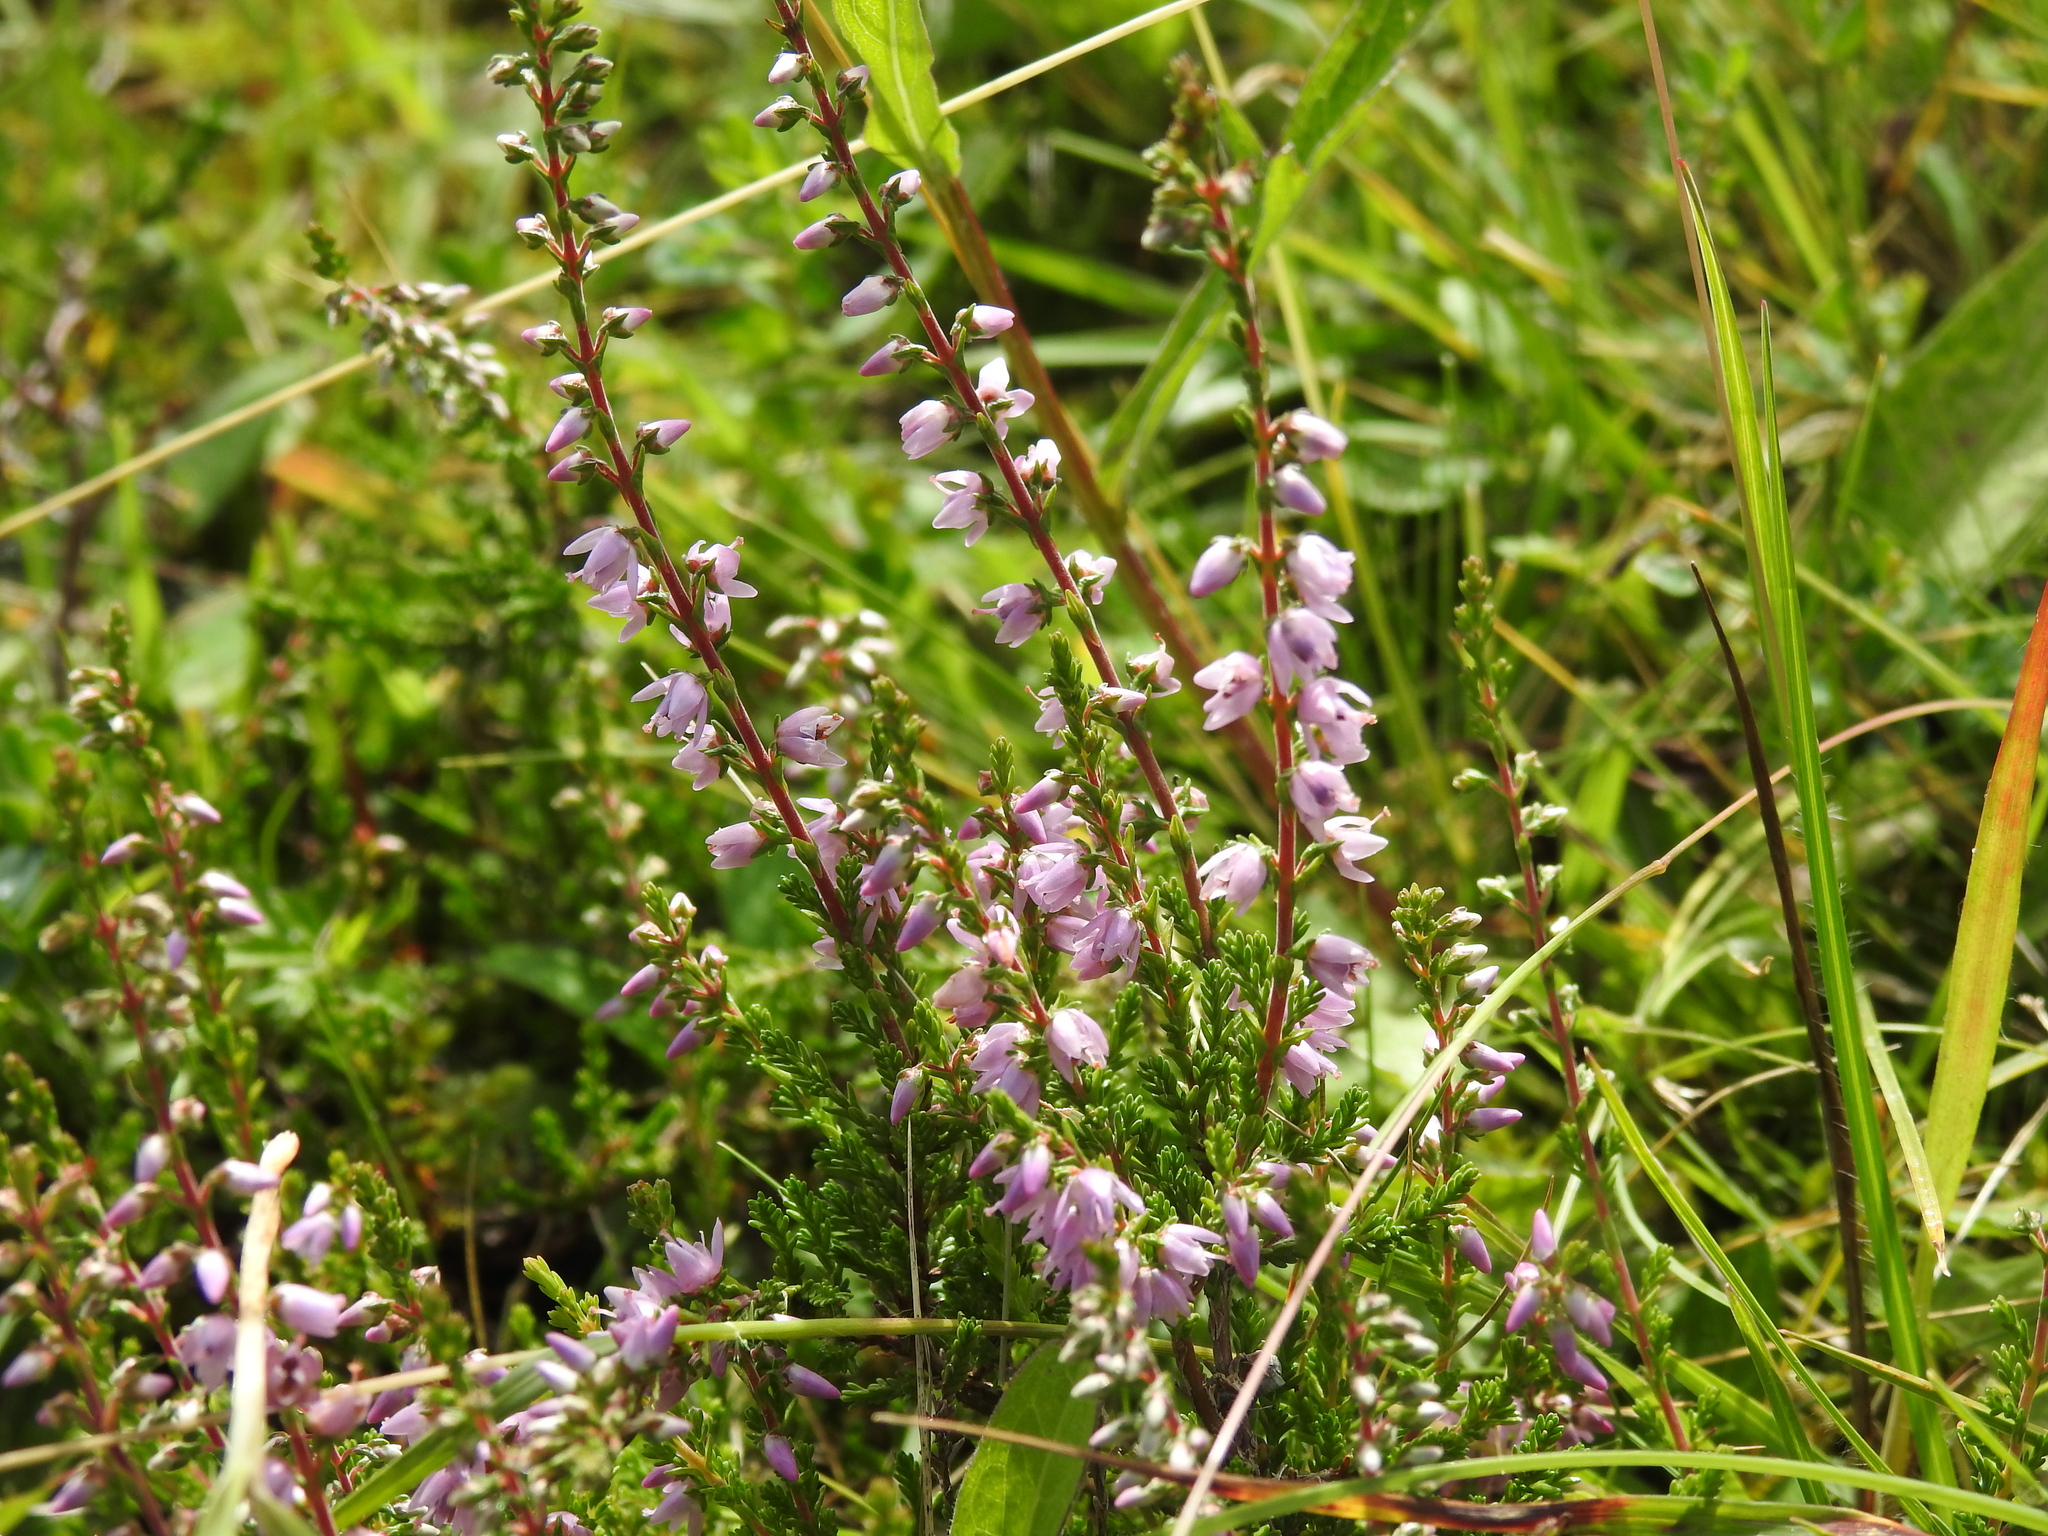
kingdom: Plantae
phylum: Tracheophyta
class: Magnoliopsida
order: Ericales
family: Ericaceae
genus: Calluna
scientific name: Calluna vulgaris
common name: Heather
